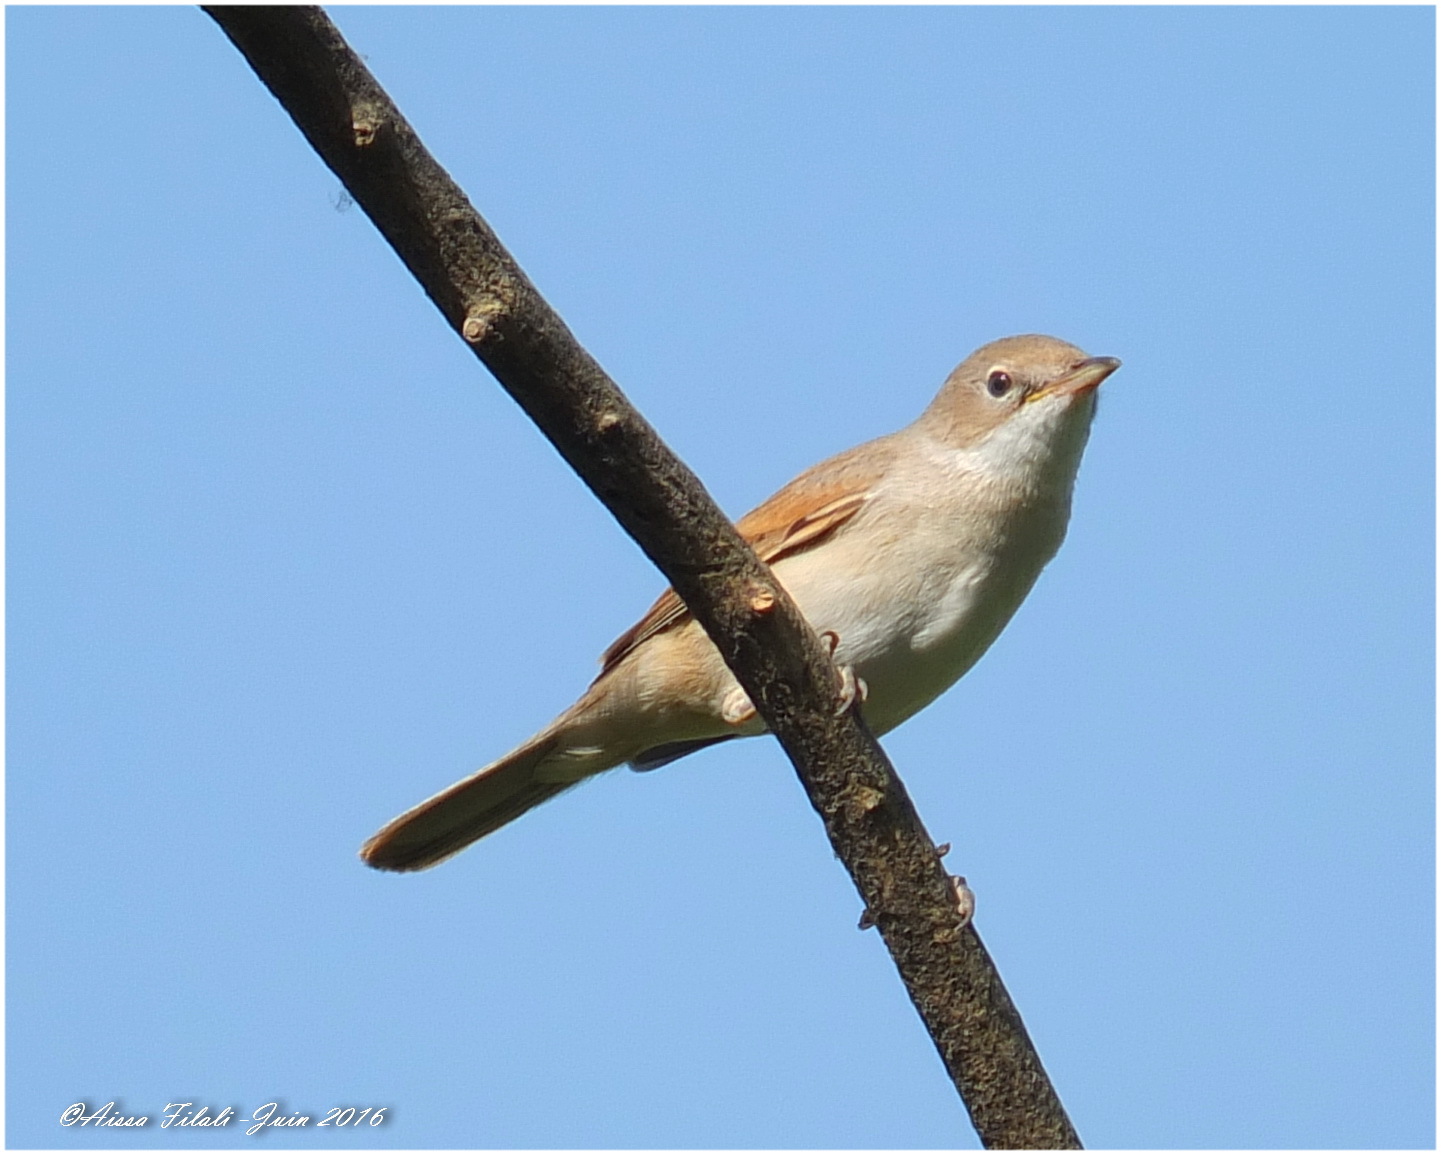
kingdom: Animalia
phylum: Chordata
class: Aves
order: Passeriformes
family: Sylviidae
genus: Sylvia
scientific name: Sylvia communis
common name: Common whitethroat
